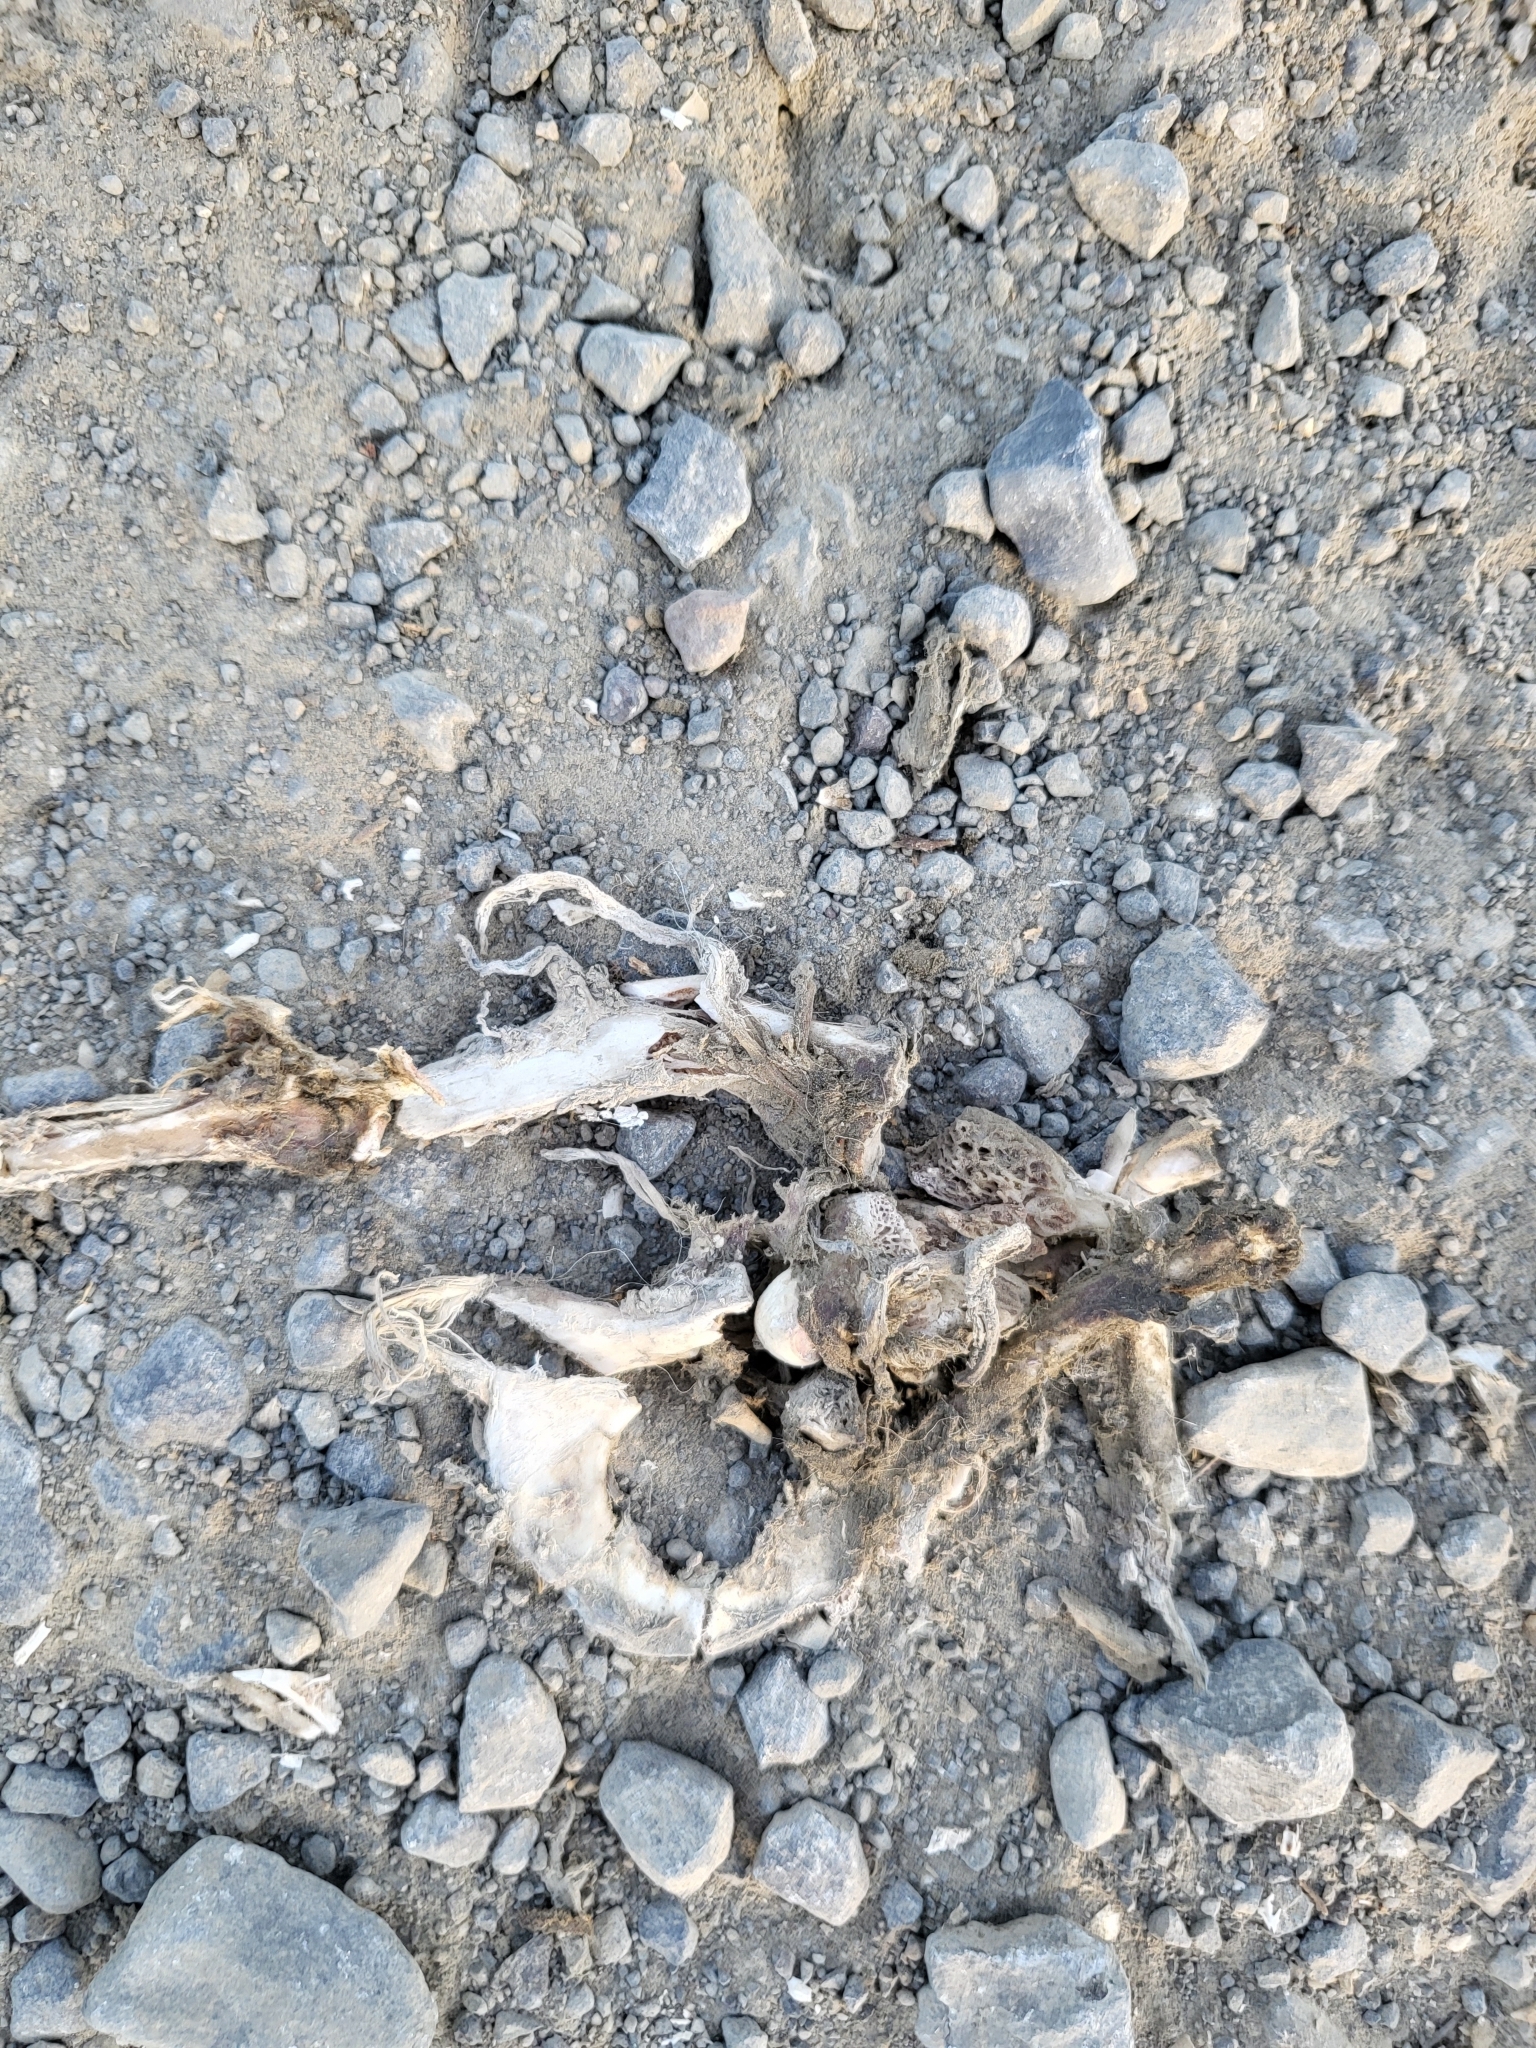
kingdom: Animalia
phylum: Chordata
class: Mammalia
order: Didelphimorphia
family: Didelphidae
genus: Didelphis
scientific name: Didelphis virginiana
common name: Virginia opossum
